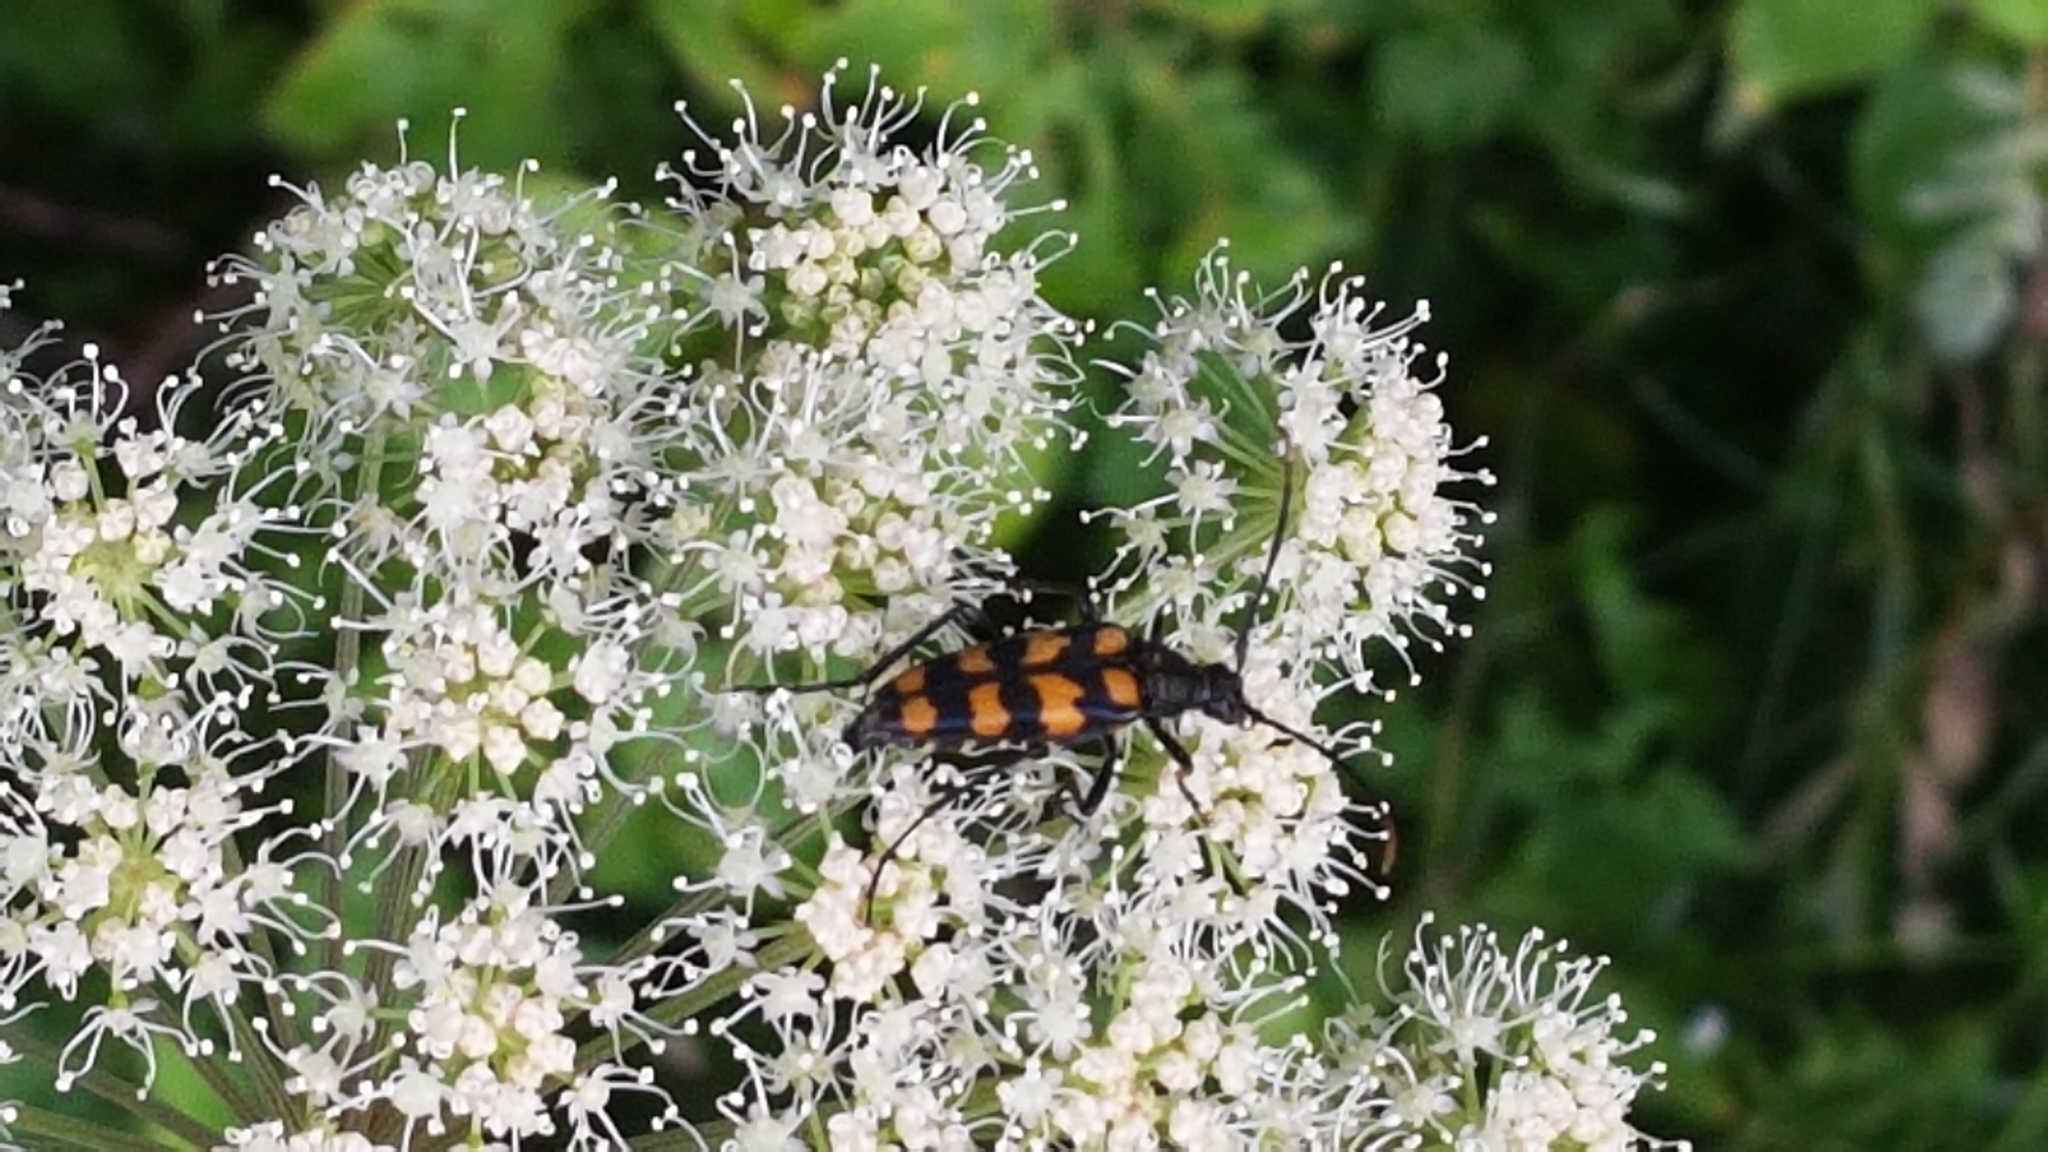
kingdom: Animalia
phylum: Arthropoda
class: Insecta
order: Coleoptera
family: Cerambycidae
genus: Leptura
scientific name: Leptura quadrifasciata
